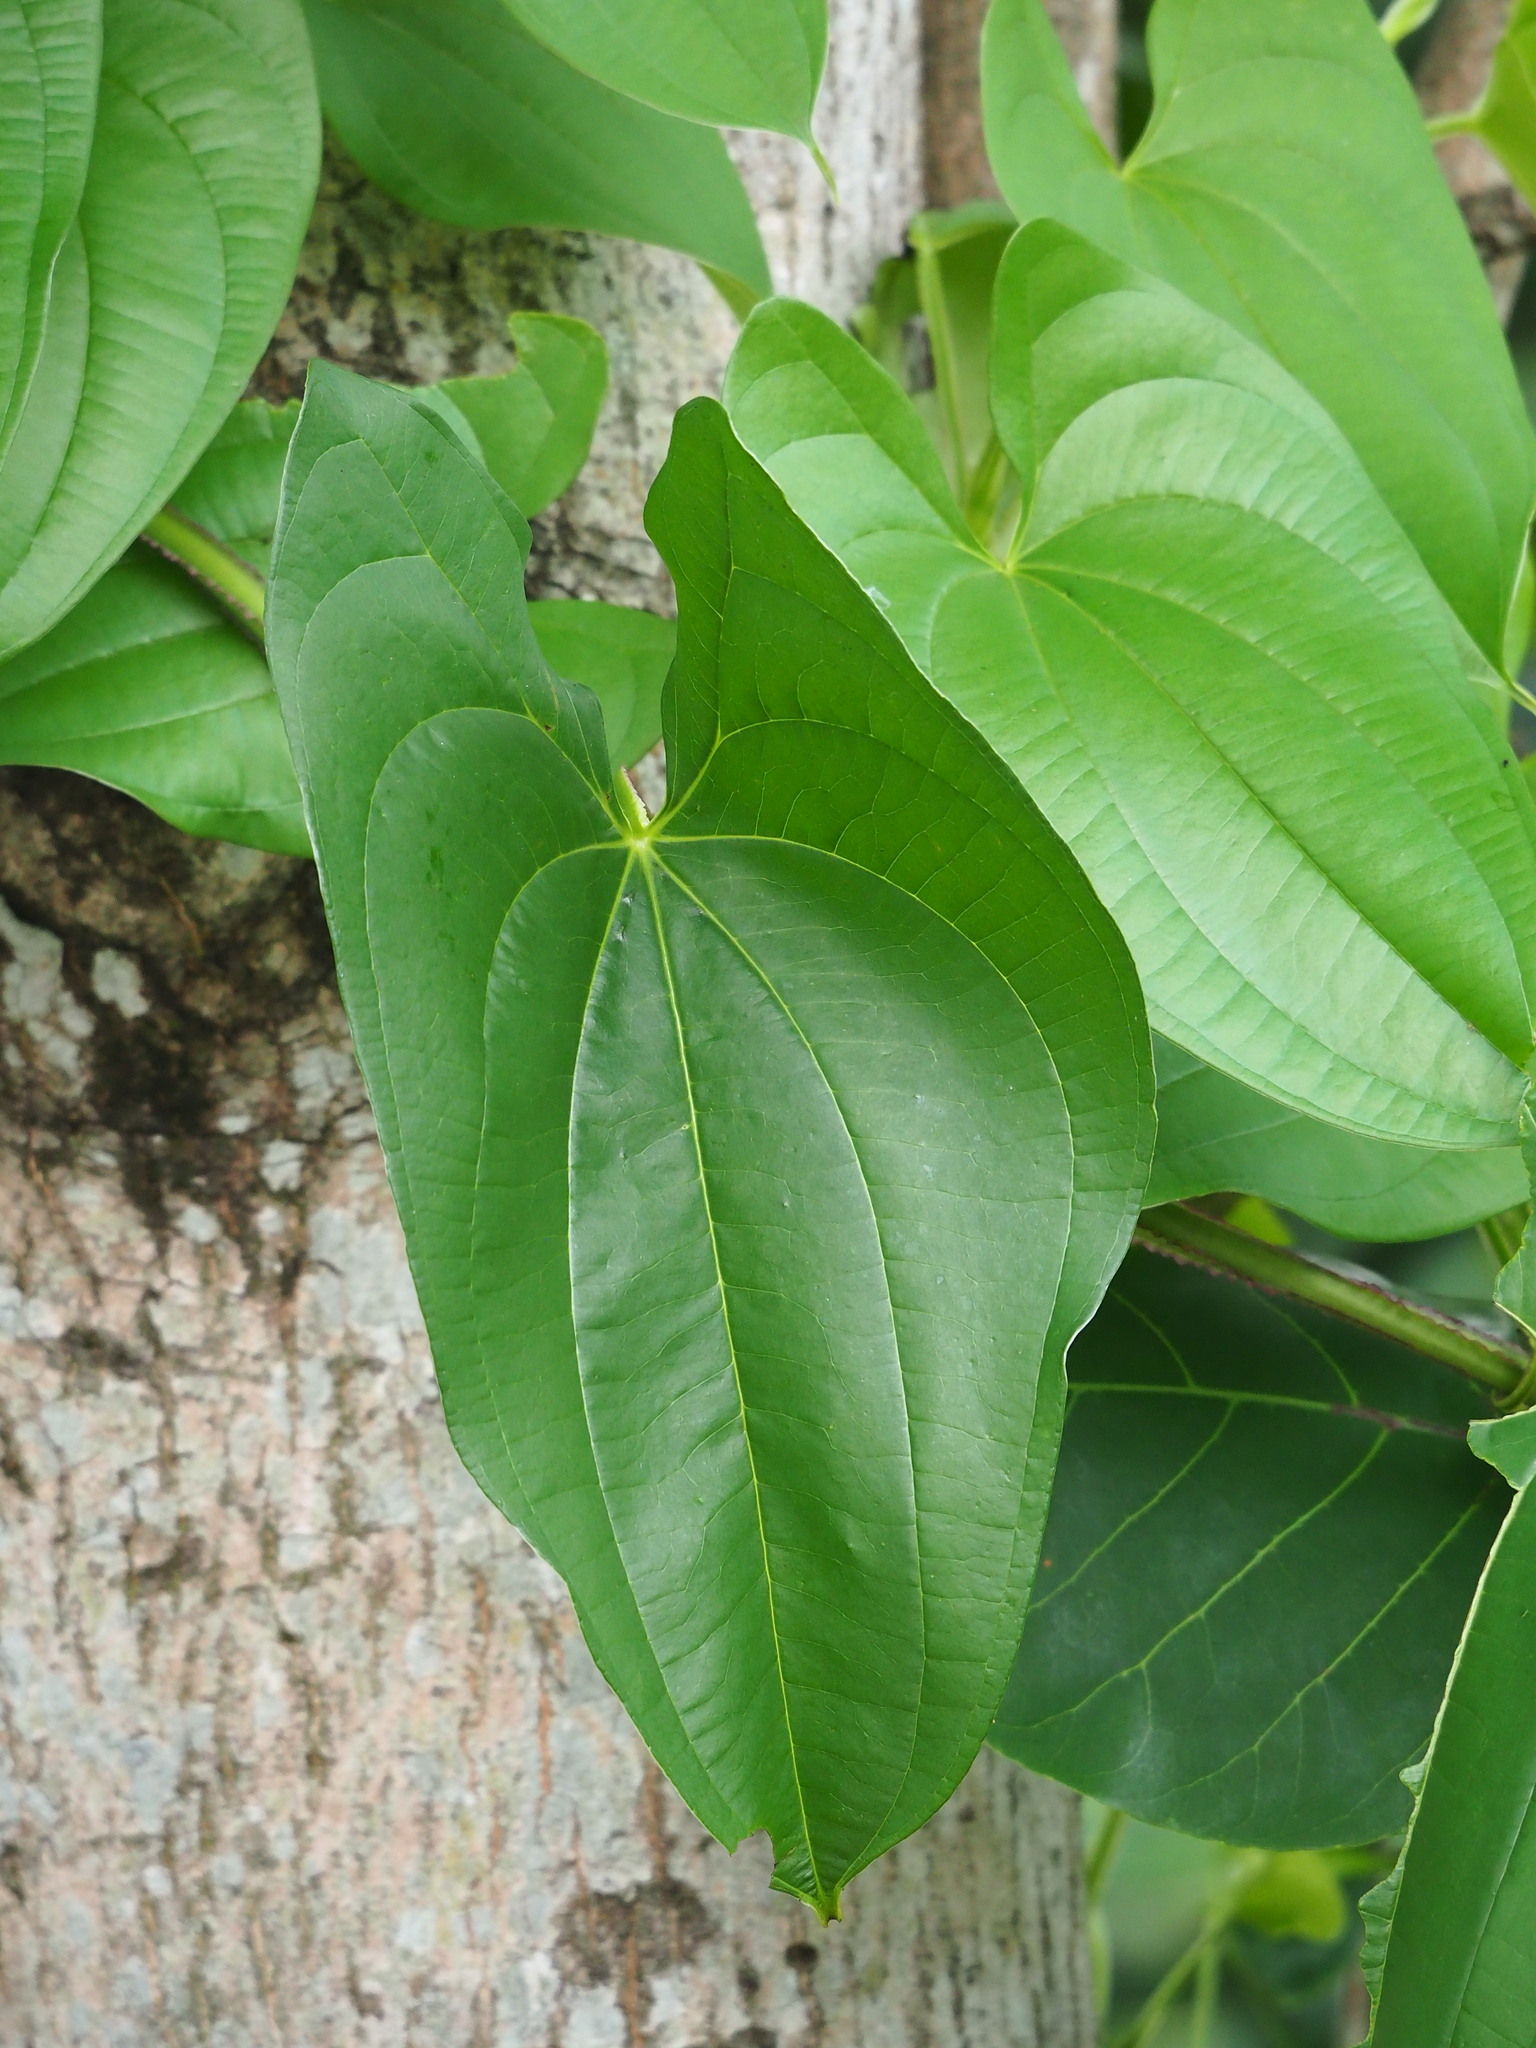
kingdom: Plantae
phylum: Tracheophyta
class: Liliopsida
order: Dioscoreales
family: Dioscoreaceae
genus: Dioscorea
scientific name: Dioscorea alata
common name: Water yam
